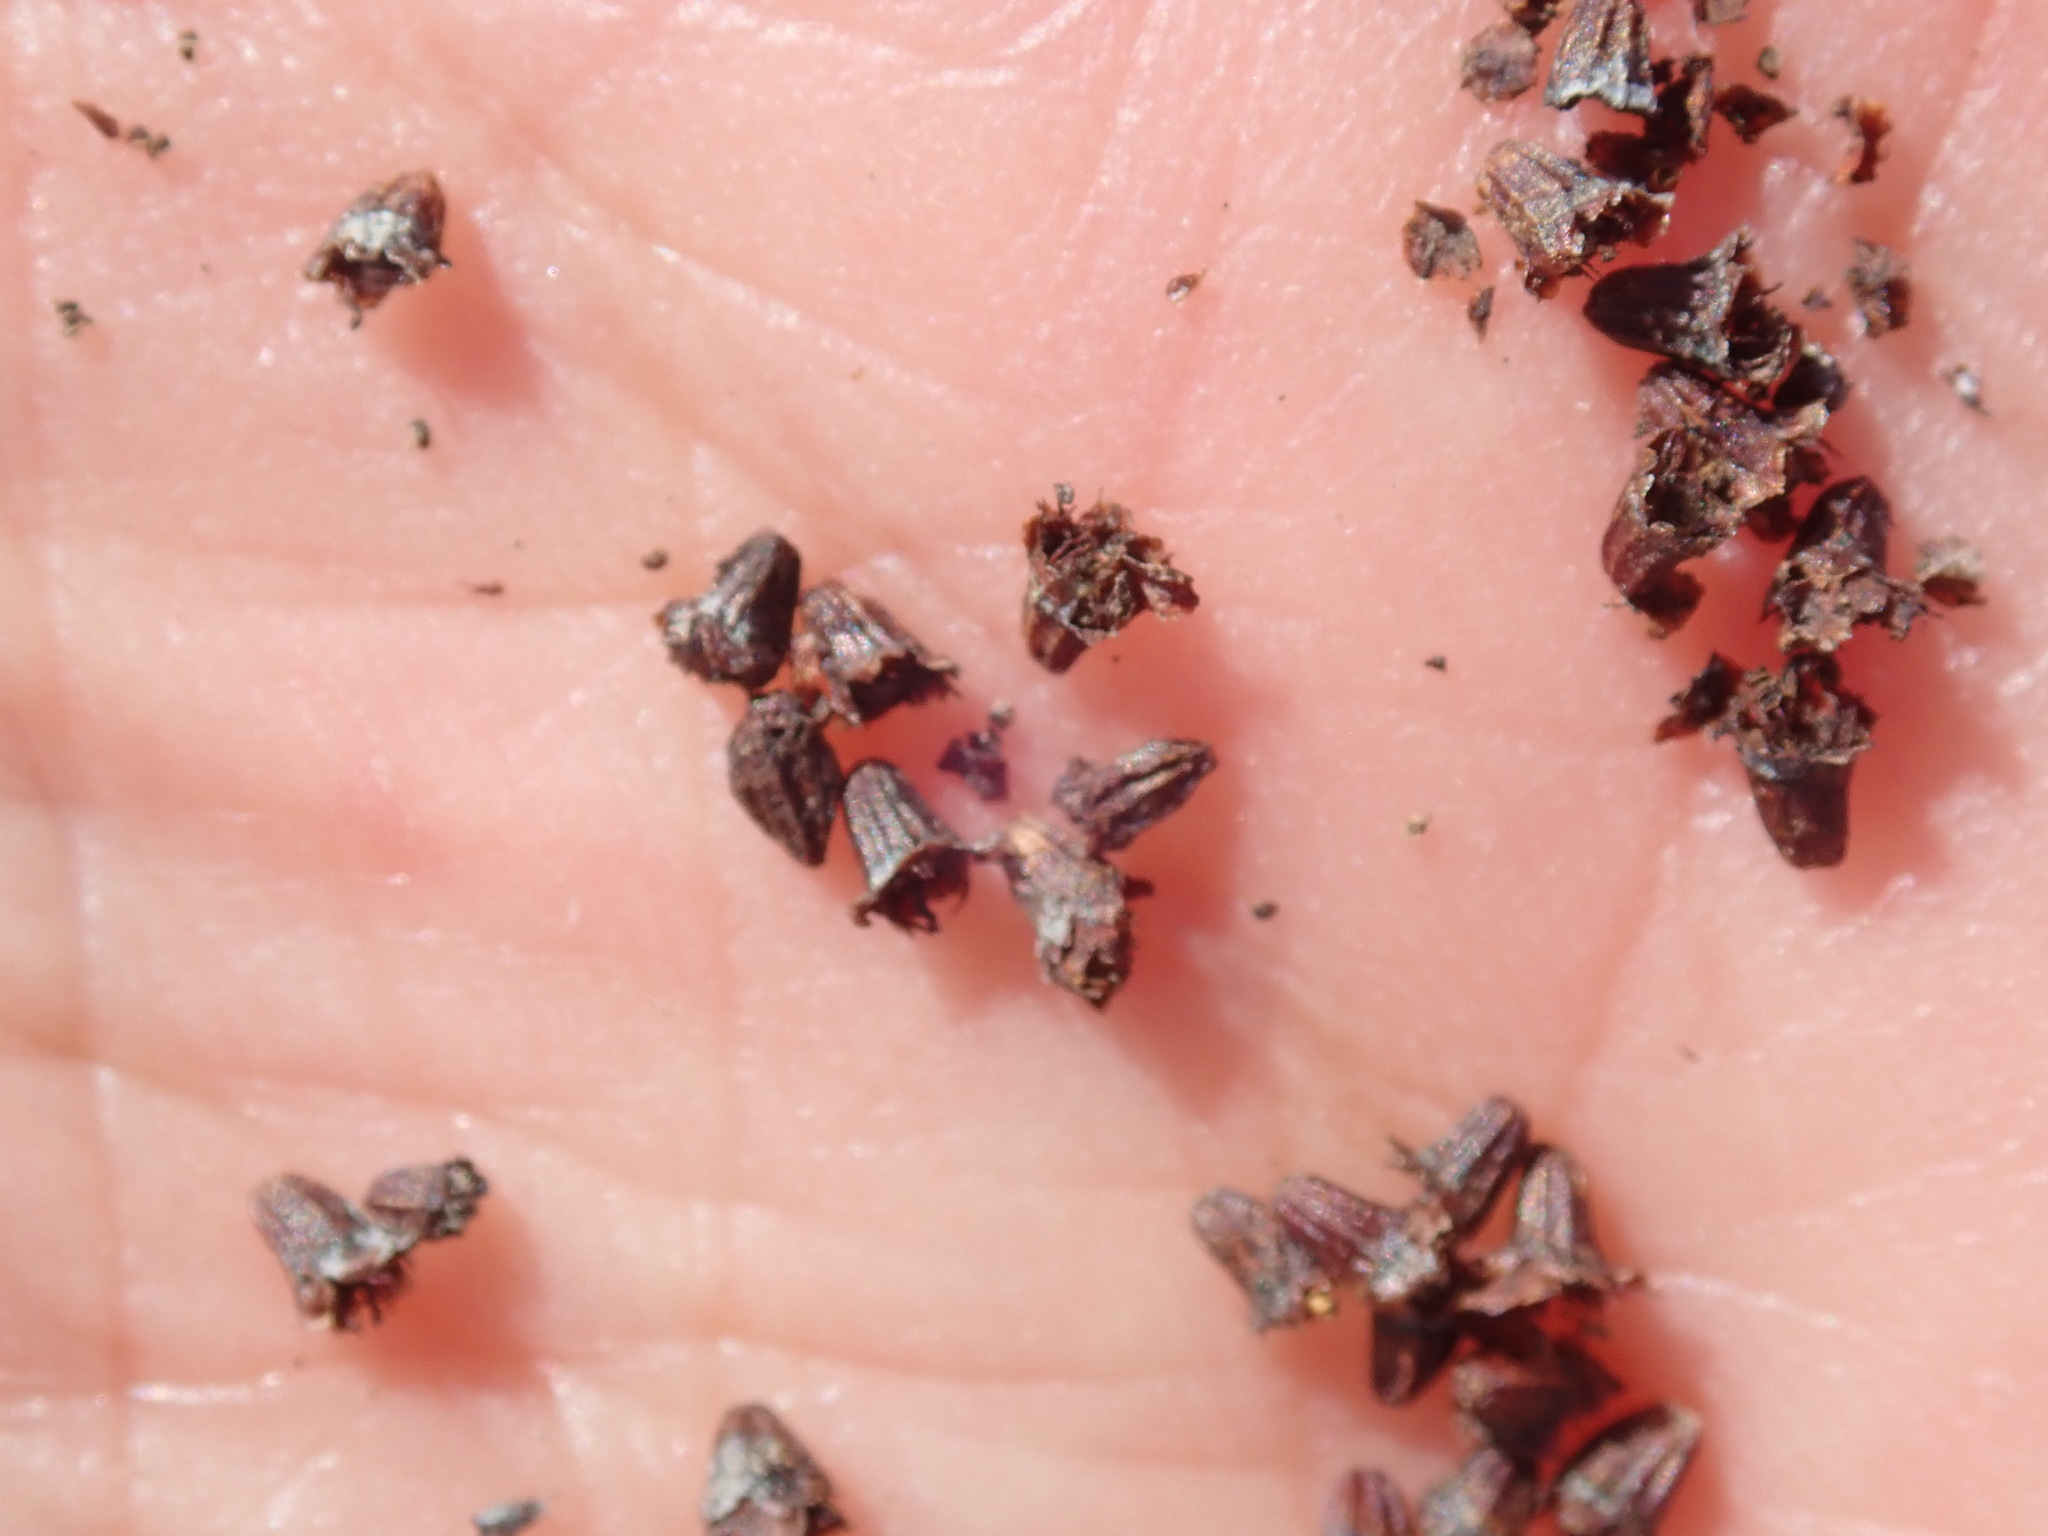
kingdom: Animalia
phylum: Arthropoda
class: Insecta
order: Diptera
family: Cecidomyiidae
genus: Asphondylia
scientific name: Asphondylia adenostoma
